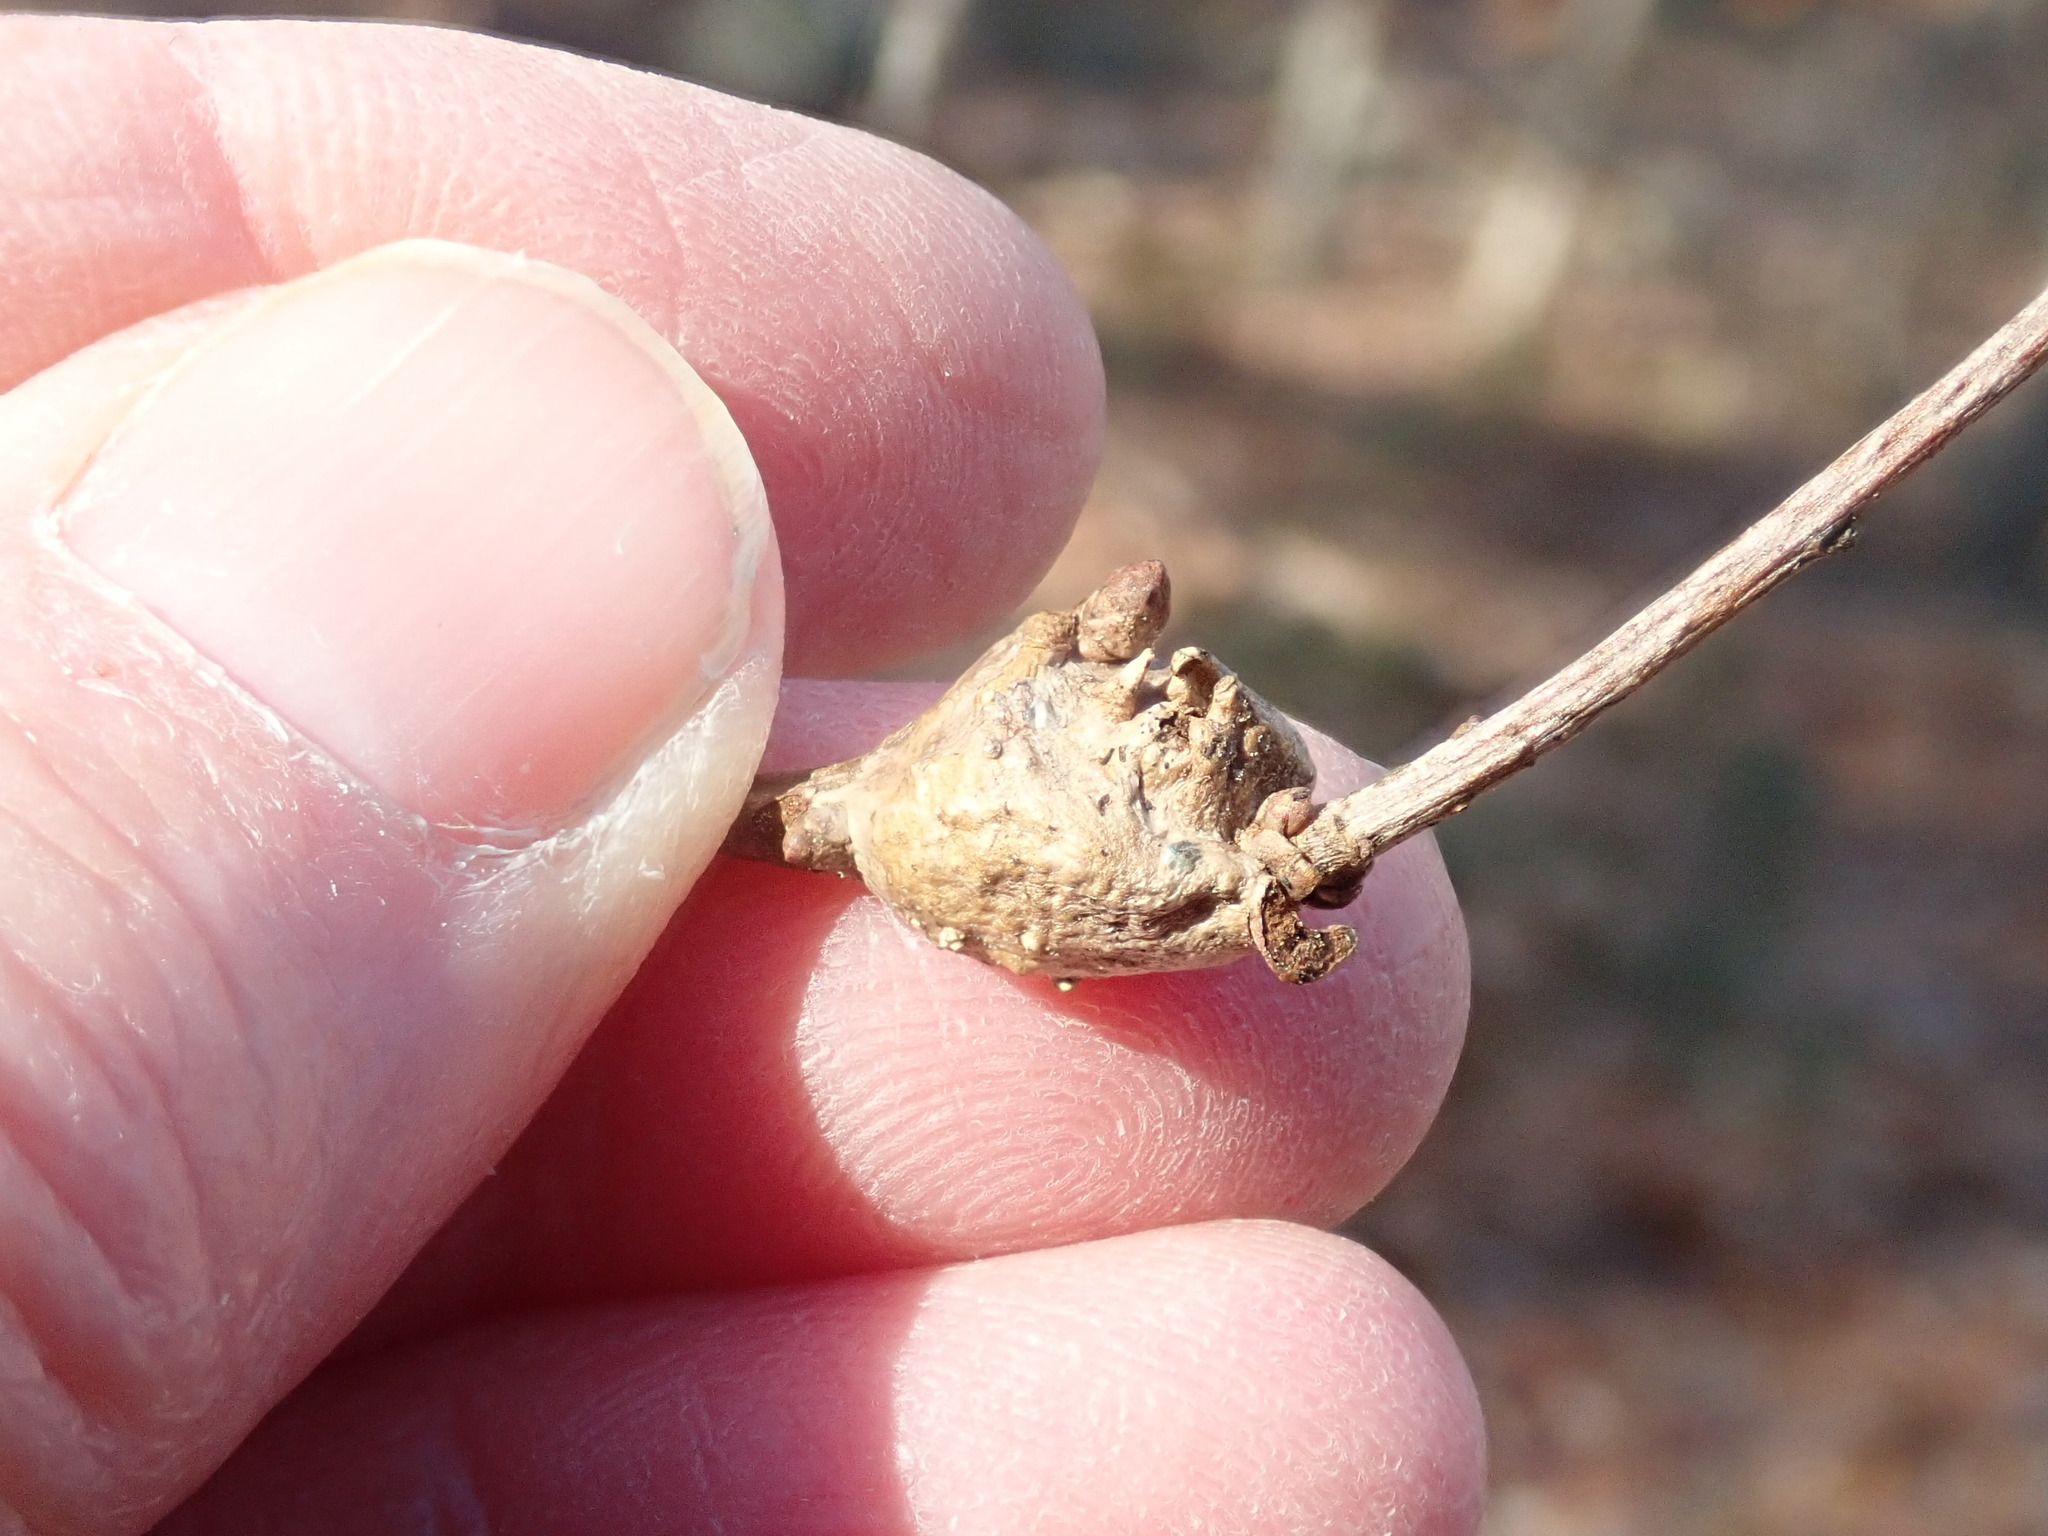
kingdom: Animalia
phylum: Arthropoda
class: Insecta
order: Hymenoptera
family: Cynipidae
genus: Callirhytis
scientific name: Callirhytis clavula
